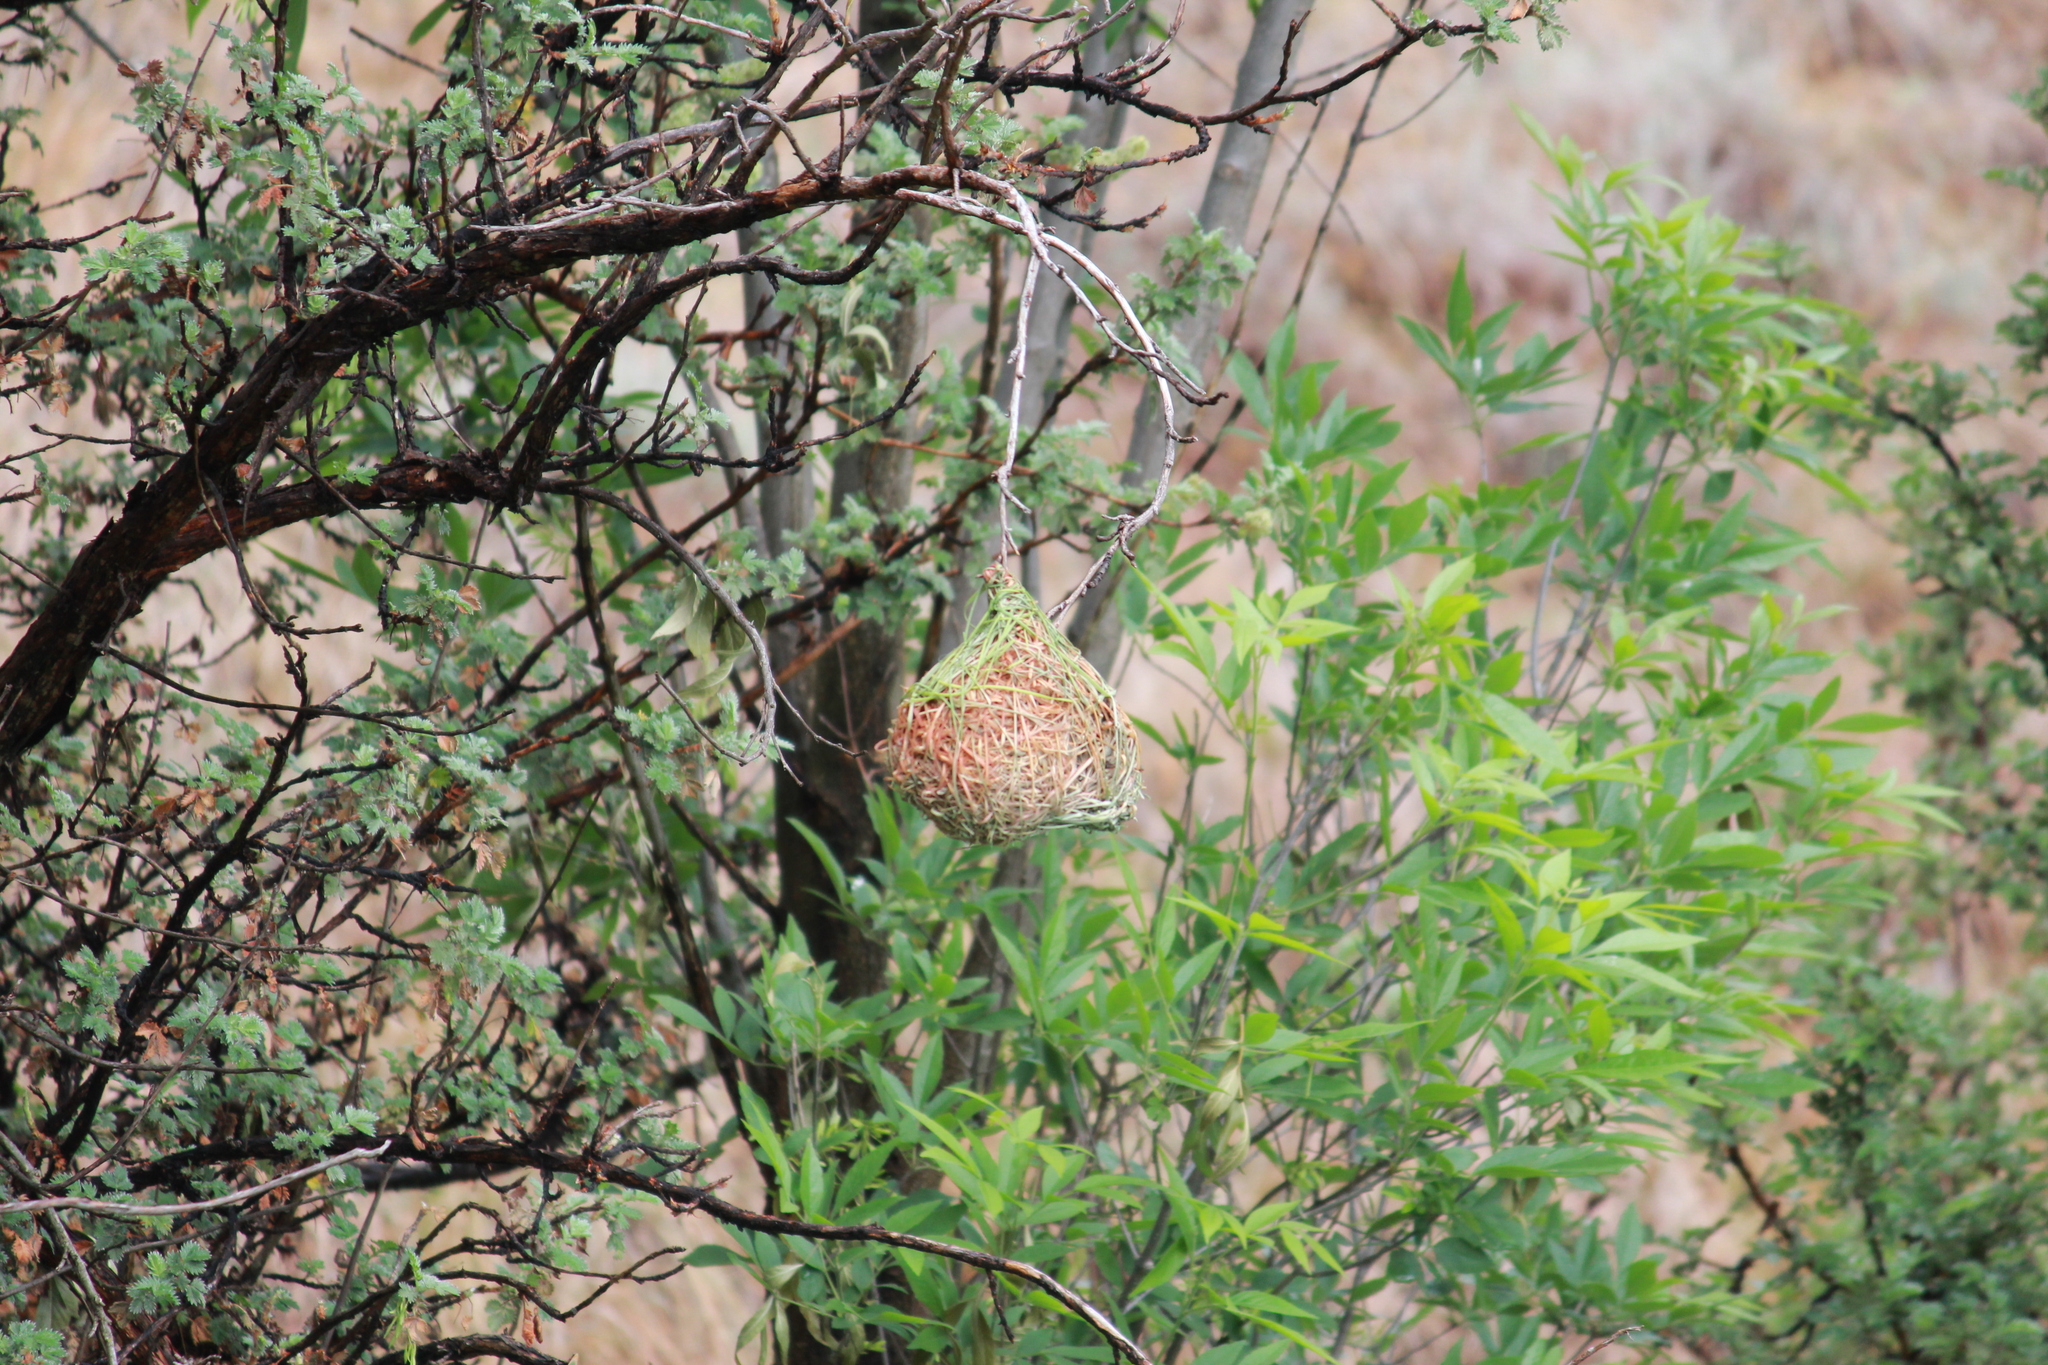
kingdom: Animalia
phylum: Chordata
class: Aves
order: Passeriformes
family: Ploceidae
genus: Ploceus
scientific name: Ploceus velatus
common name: Southern masked weaver
